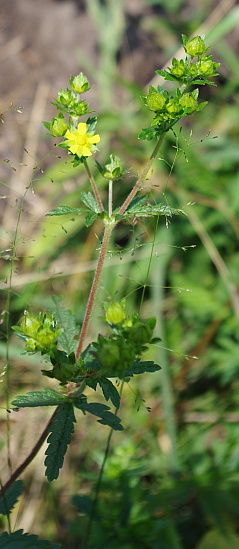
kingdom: Plantae
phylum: Tracheophyta
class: Magnoliopsida
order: Rosales
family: Rosaceae
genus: Potentilla
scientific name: Potentilla norvegica
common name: Ternate-leaved cinquefoil
